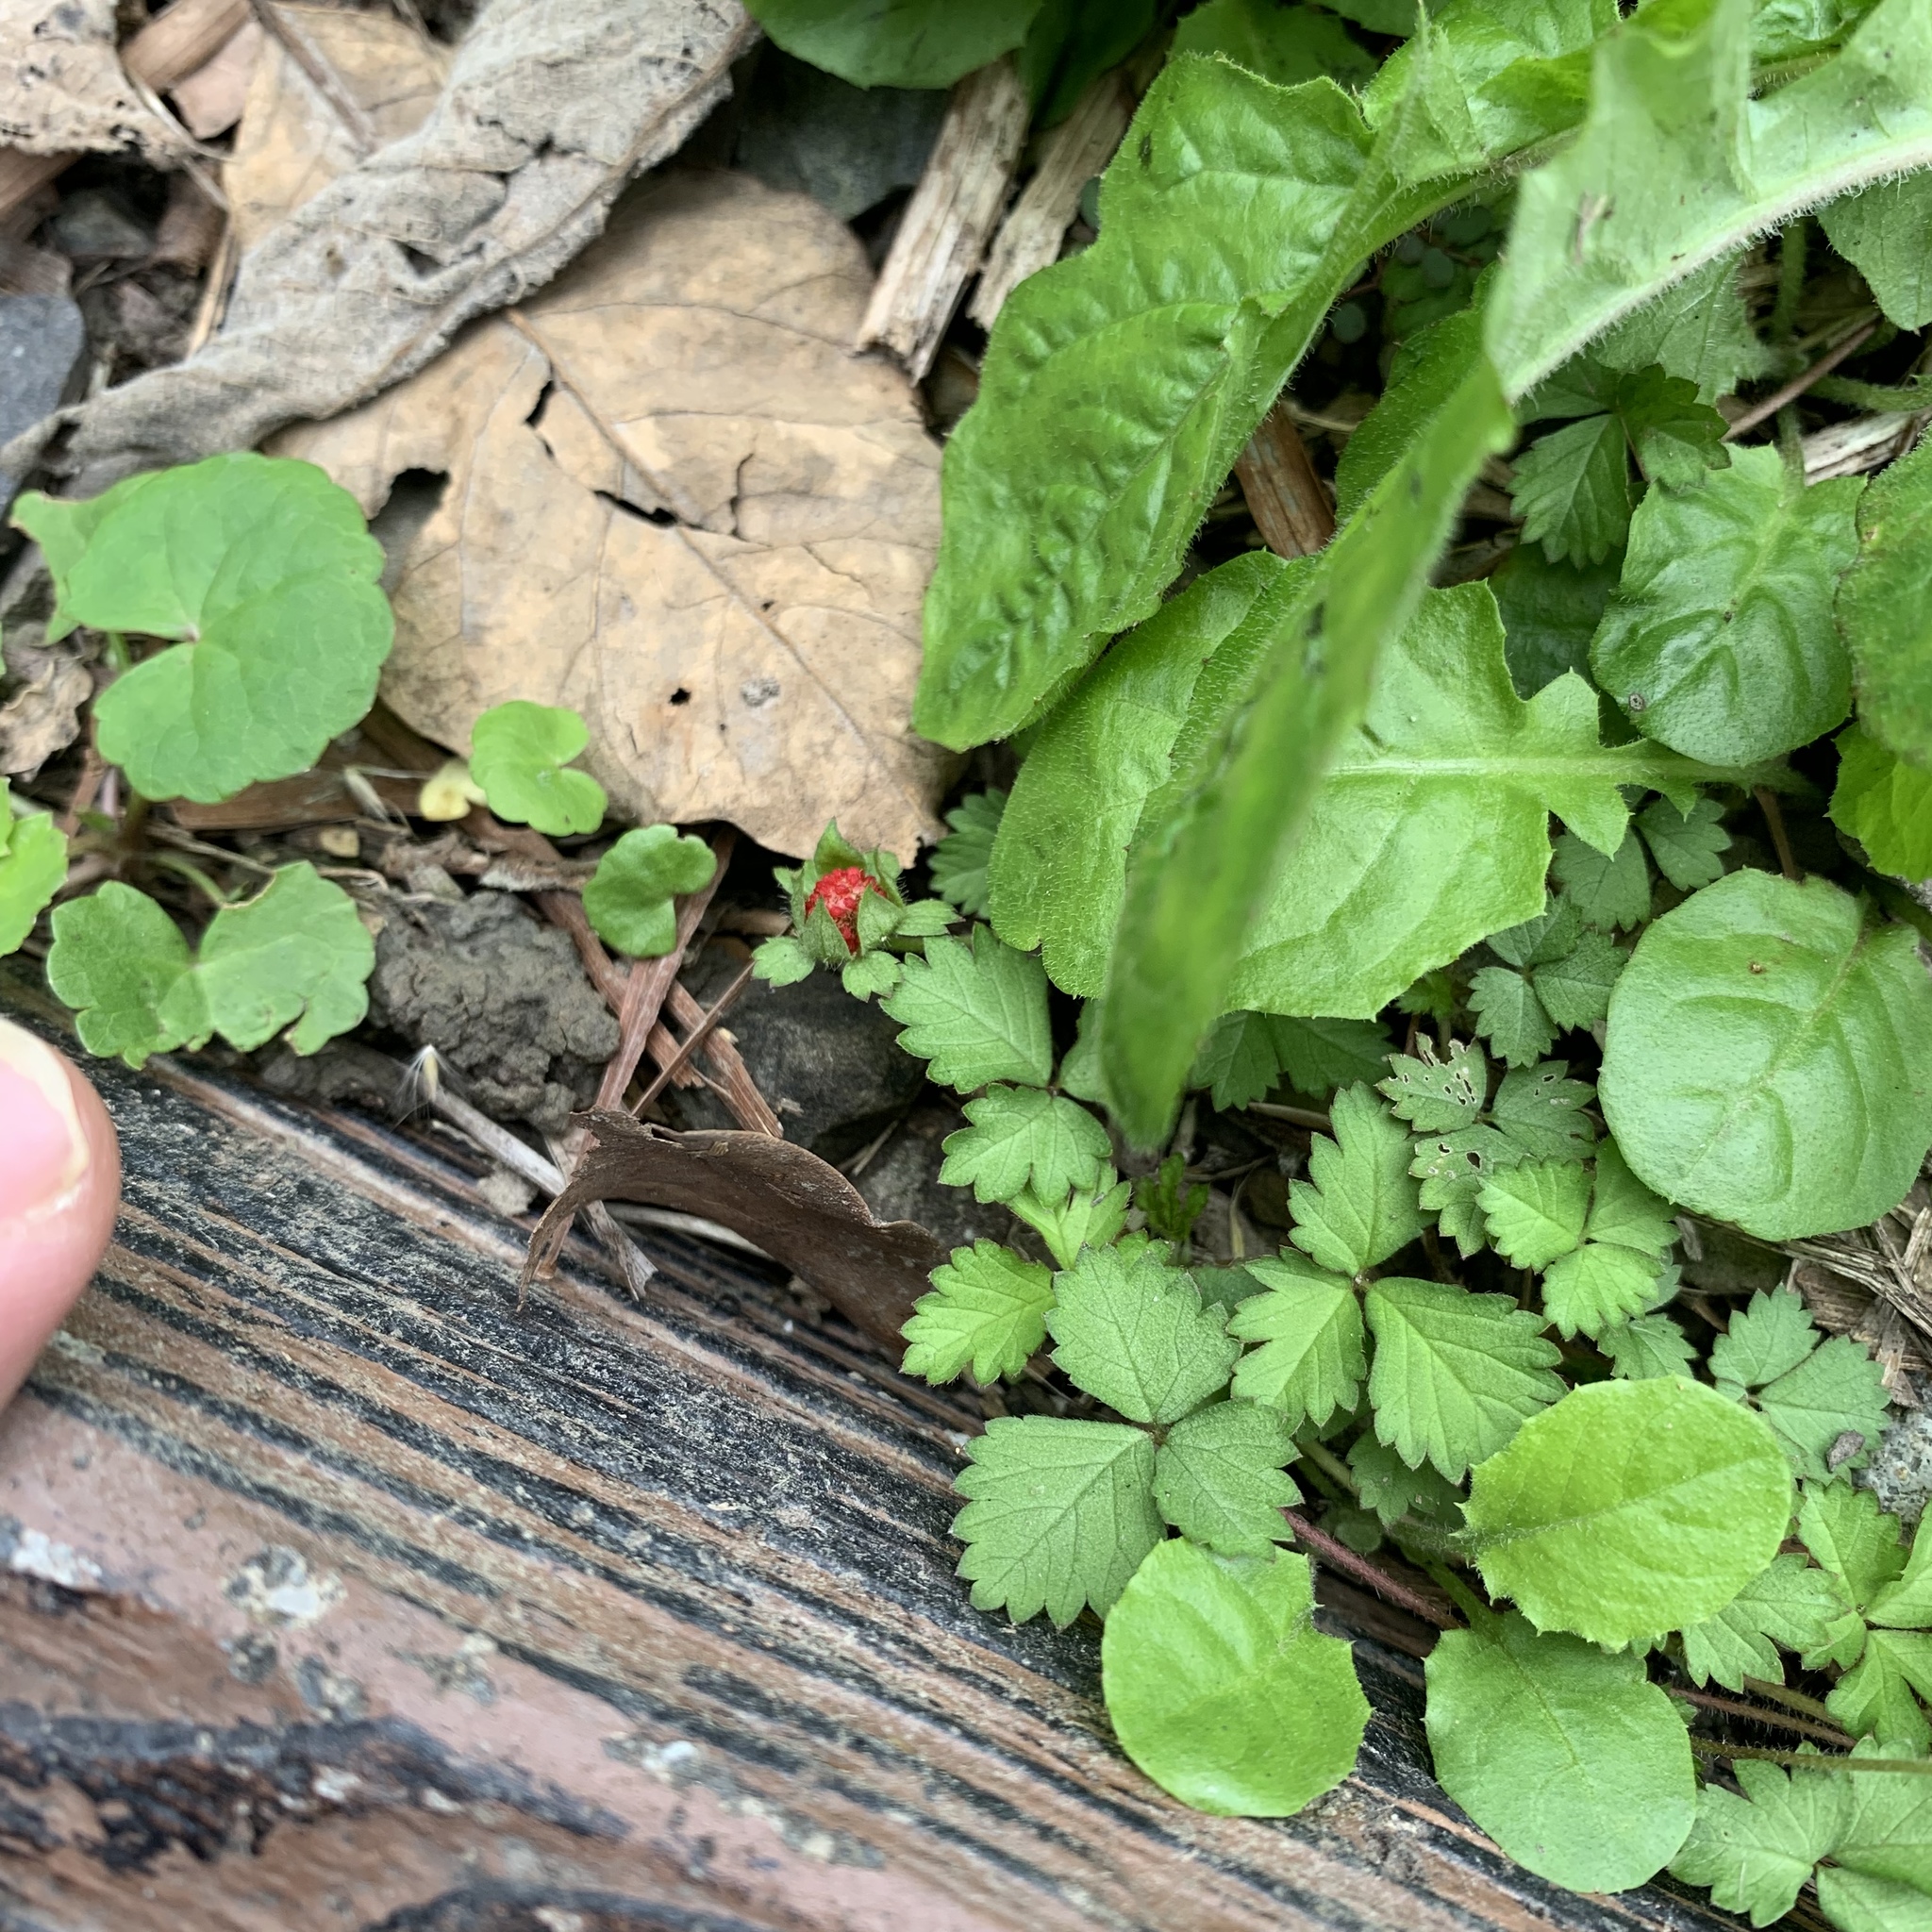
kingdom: Plantae
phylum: Tracheophyta
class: Magnoliopsida
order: Rosales
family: Rosaceae
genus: Potentilla
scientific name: Potentilla wallichiana
